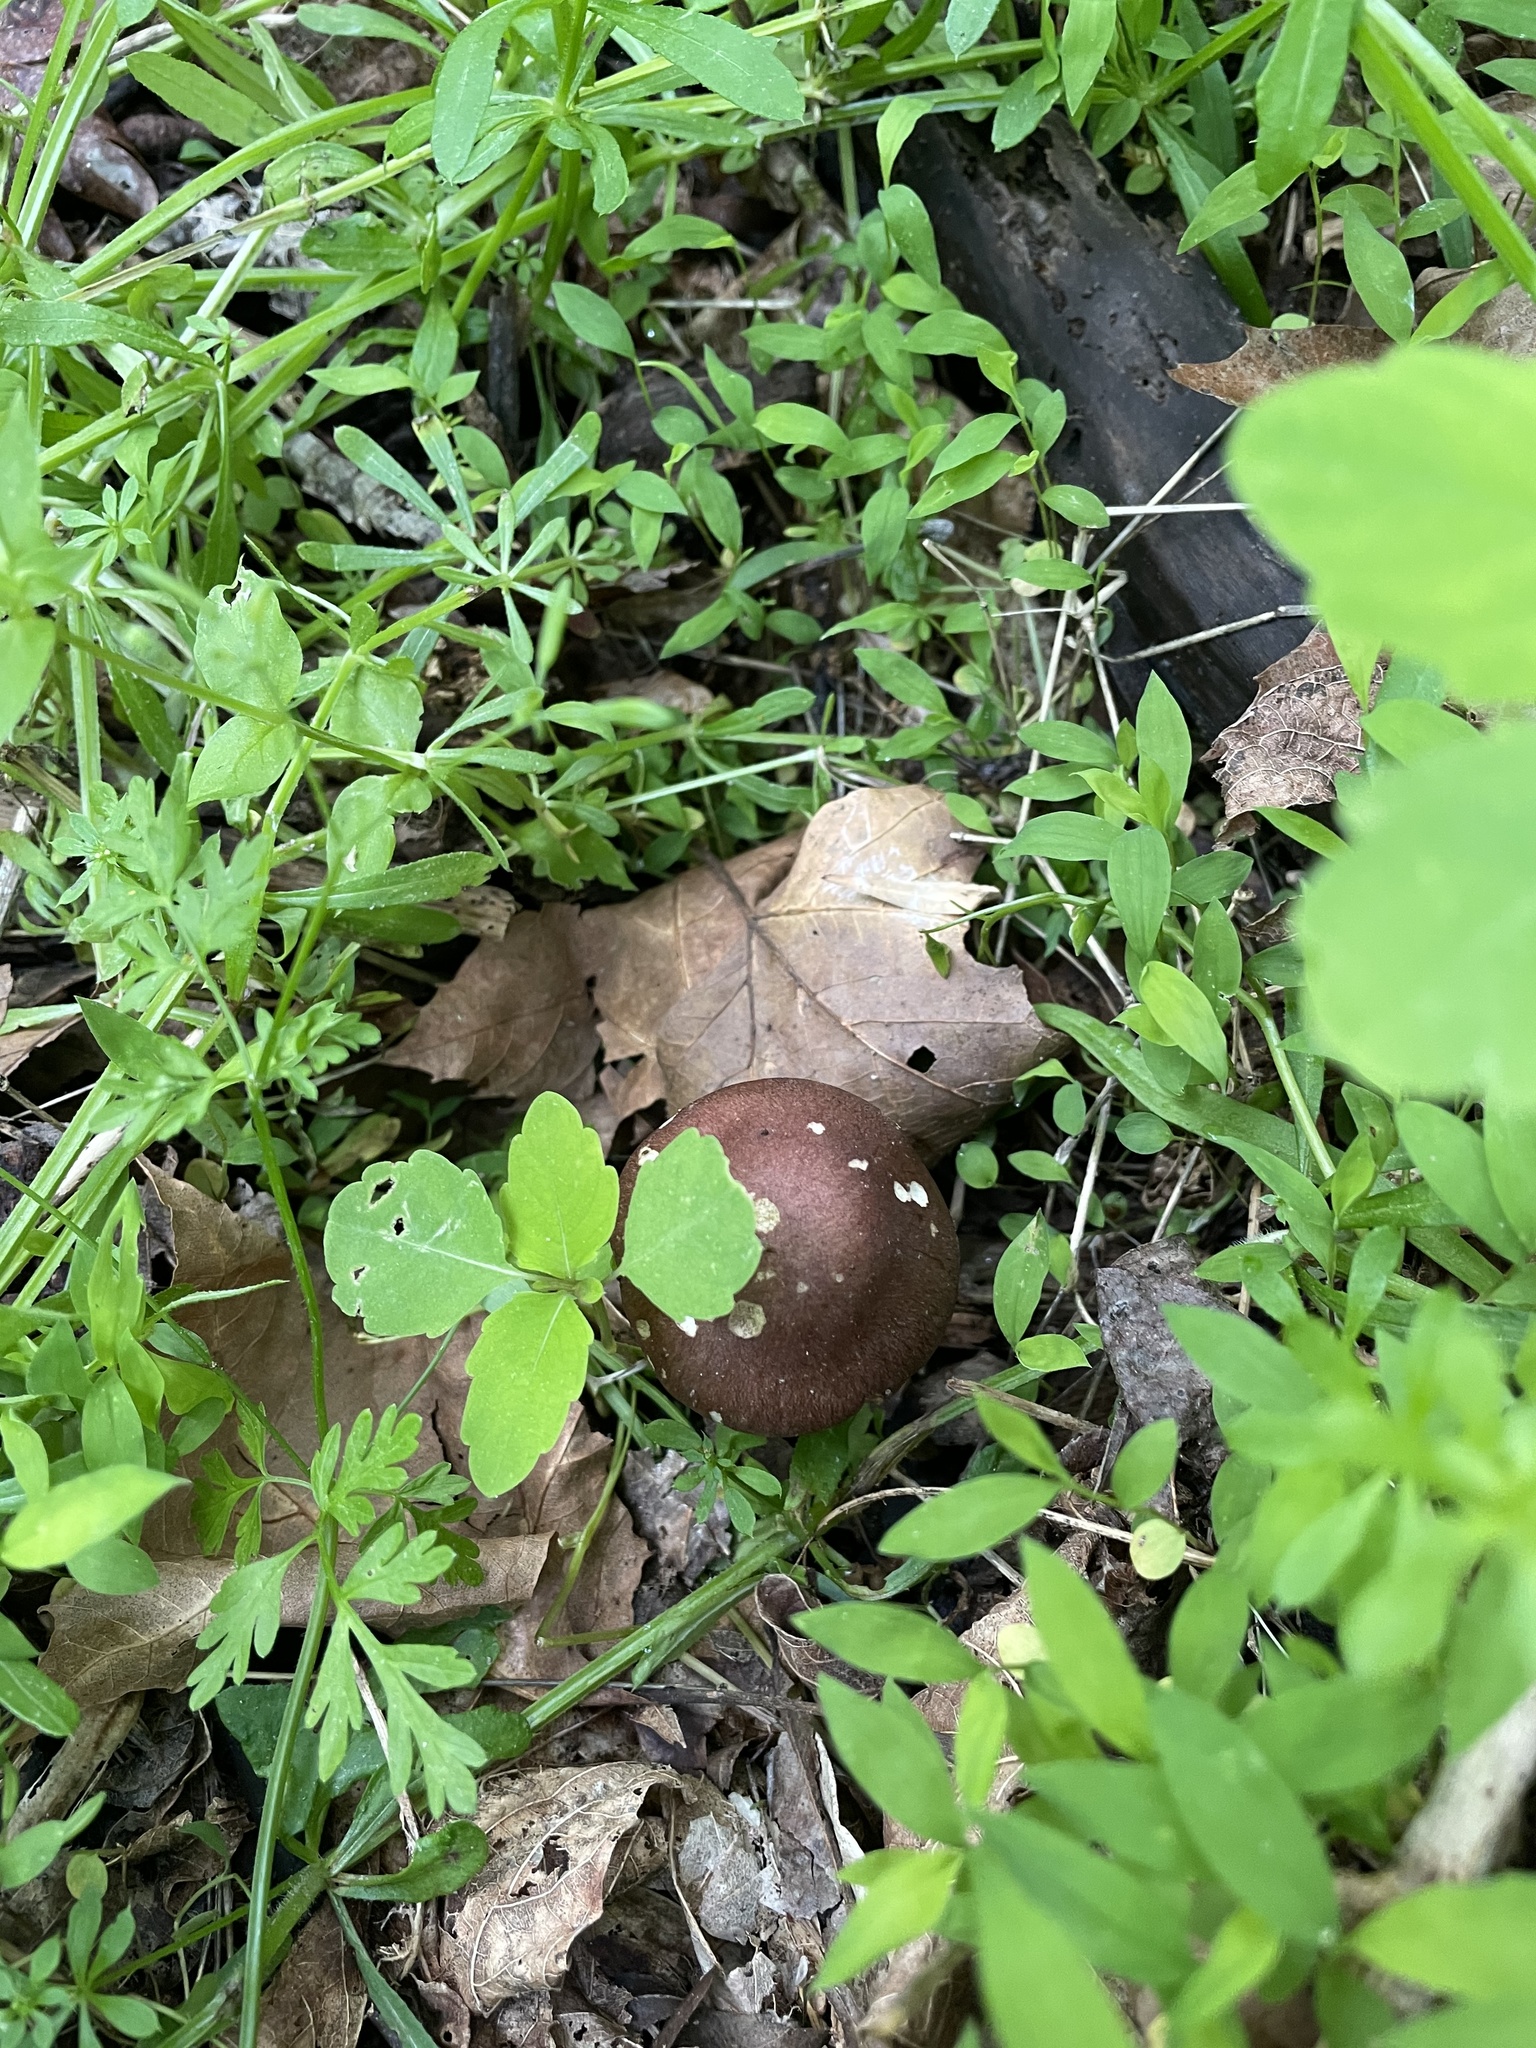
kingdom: Fungi
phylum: Basidiomycota
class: Agaricomycetes
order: Agaricales
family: Strophariaceae
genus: Stropharia
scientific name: Stropharia rugosoannulata
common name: Wine roundhead
